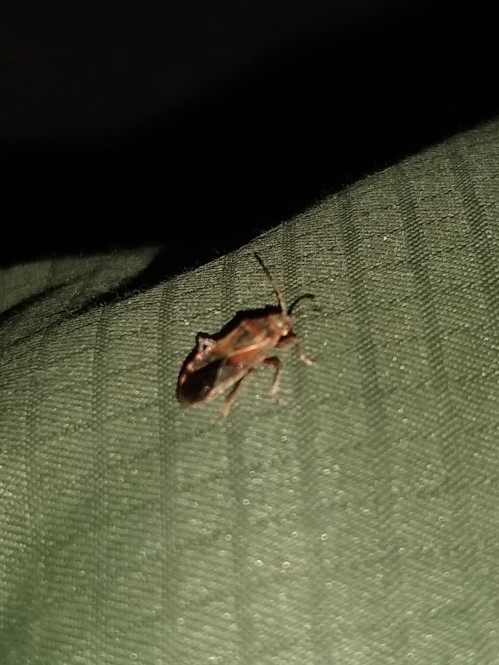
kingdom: Animalia
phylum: Arthropoda
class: Insecta
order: Hemiptera
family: Lygaeidae
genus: Arocatus
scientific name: Arocatus melanocephalus
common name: Lygaeid bug
